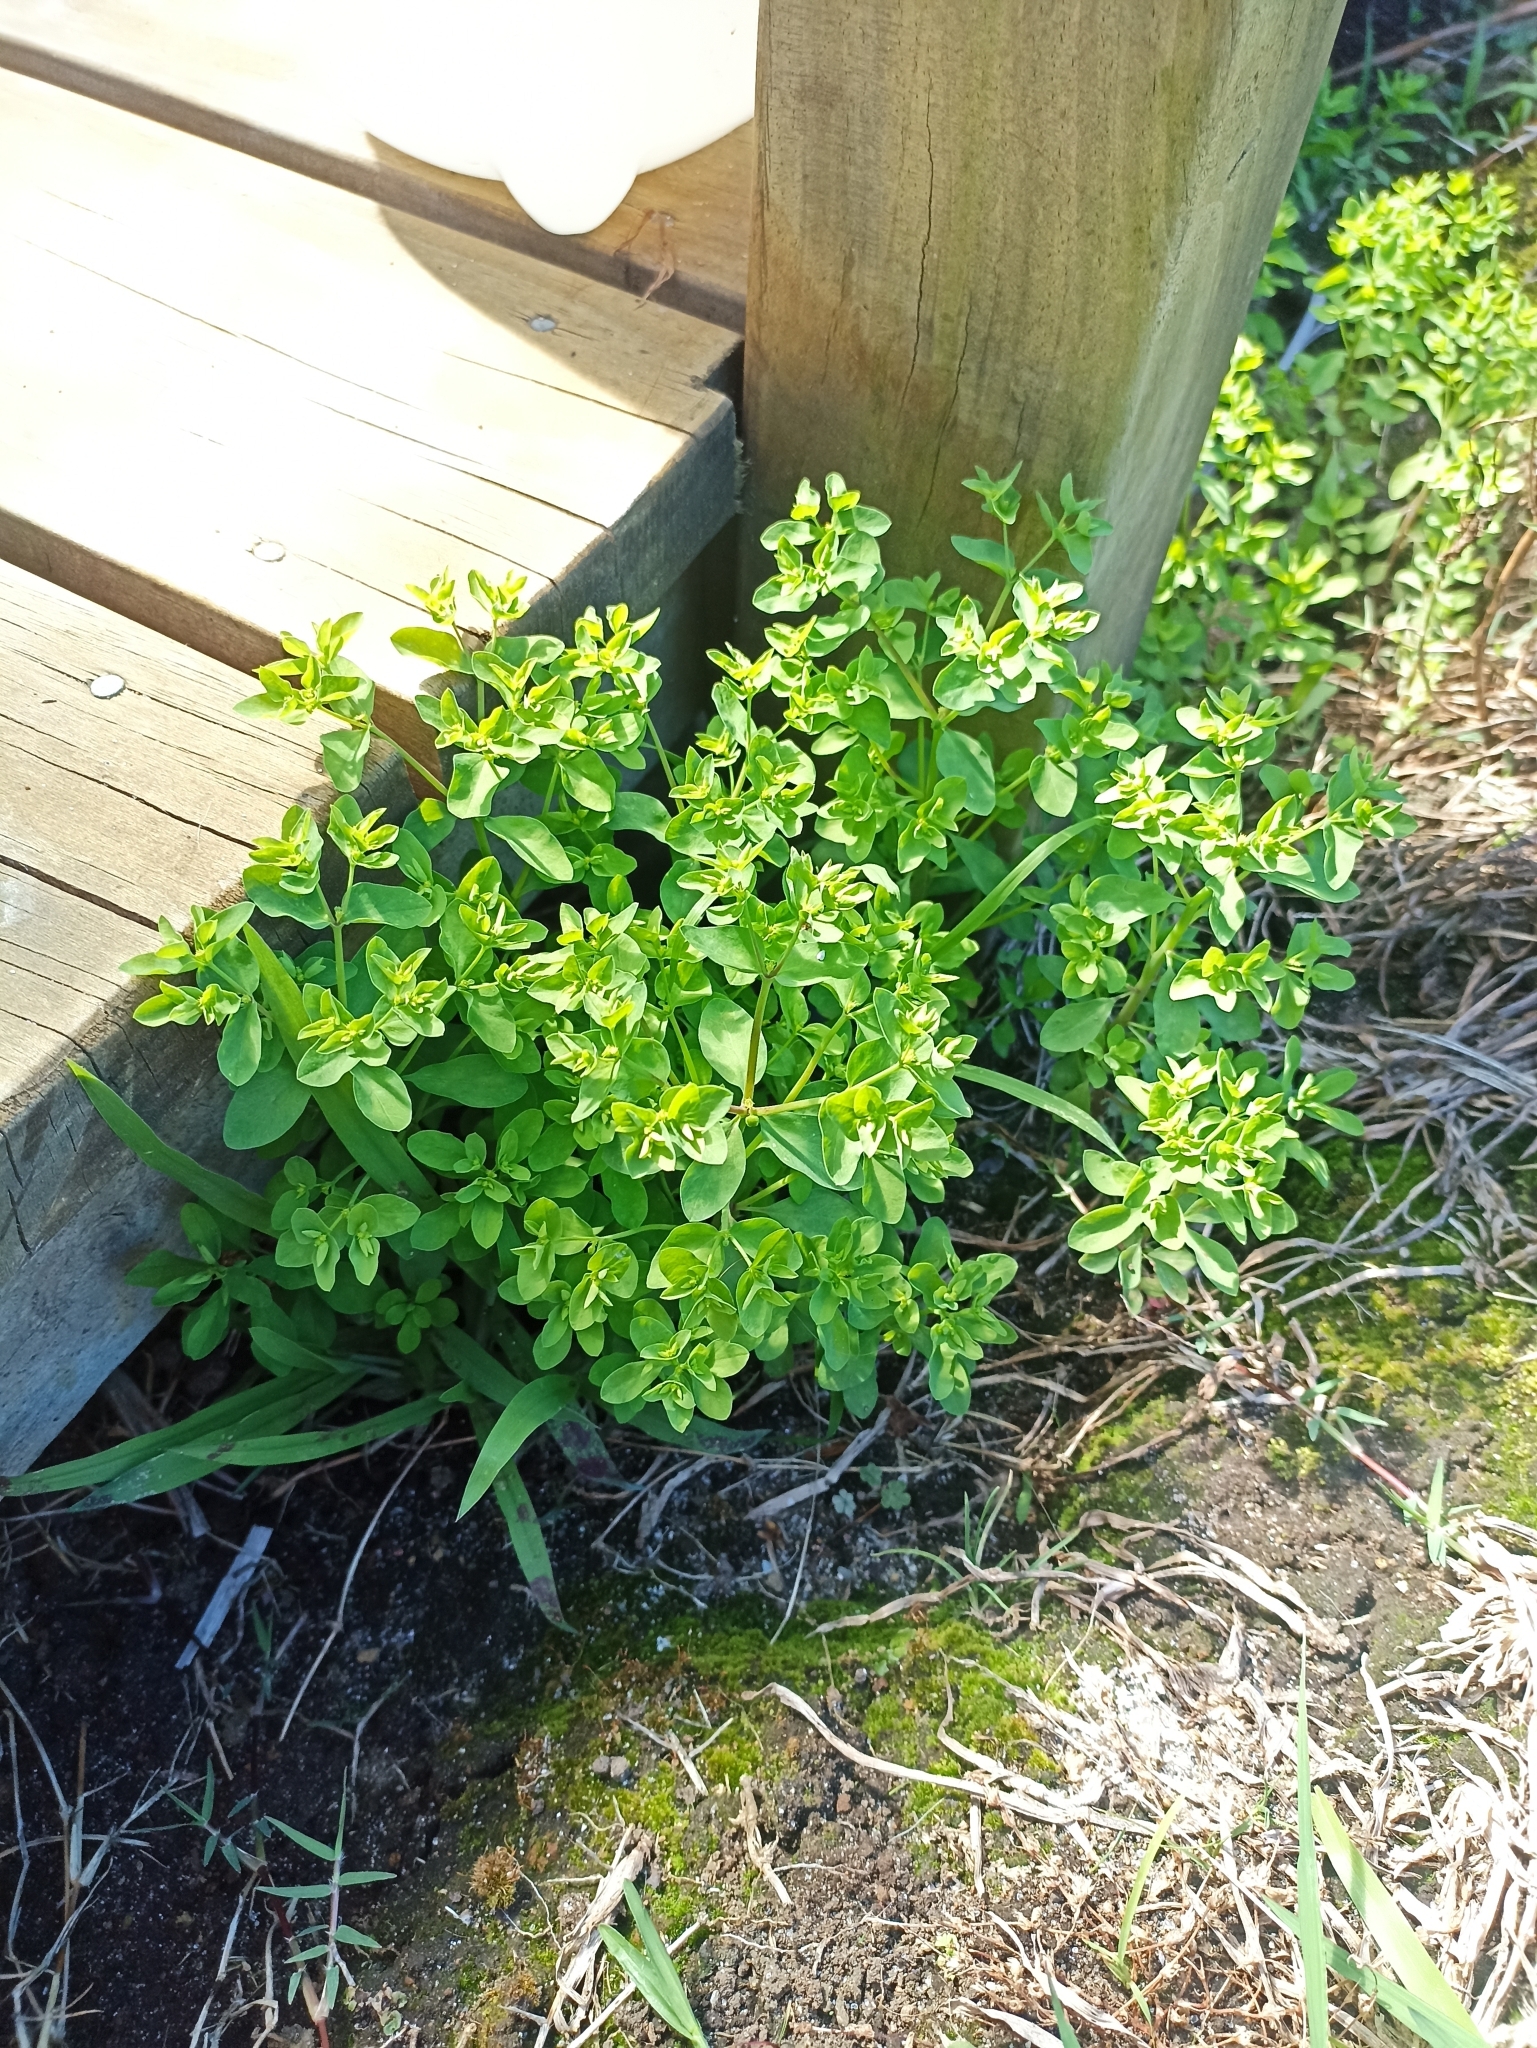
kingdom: Plantae
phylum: Tracheophyta
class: Magnoliopsida
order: Malpighiales
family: Euphorbiaceae
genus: Euphorbia
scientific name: Euphorbia peplus
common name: Petty spurge
